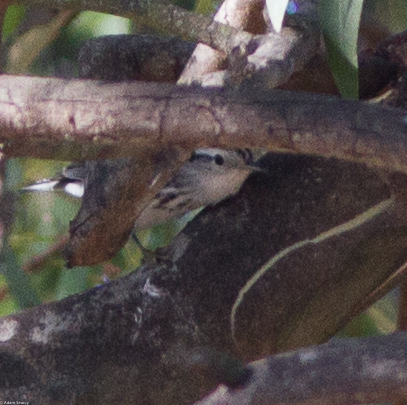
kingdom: Animalia
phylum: Chordata
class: Aves
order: Passeriformes
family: Parulidae
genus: Mniotilta
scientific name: Mniotilta varia
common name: Black-and-white warbler
